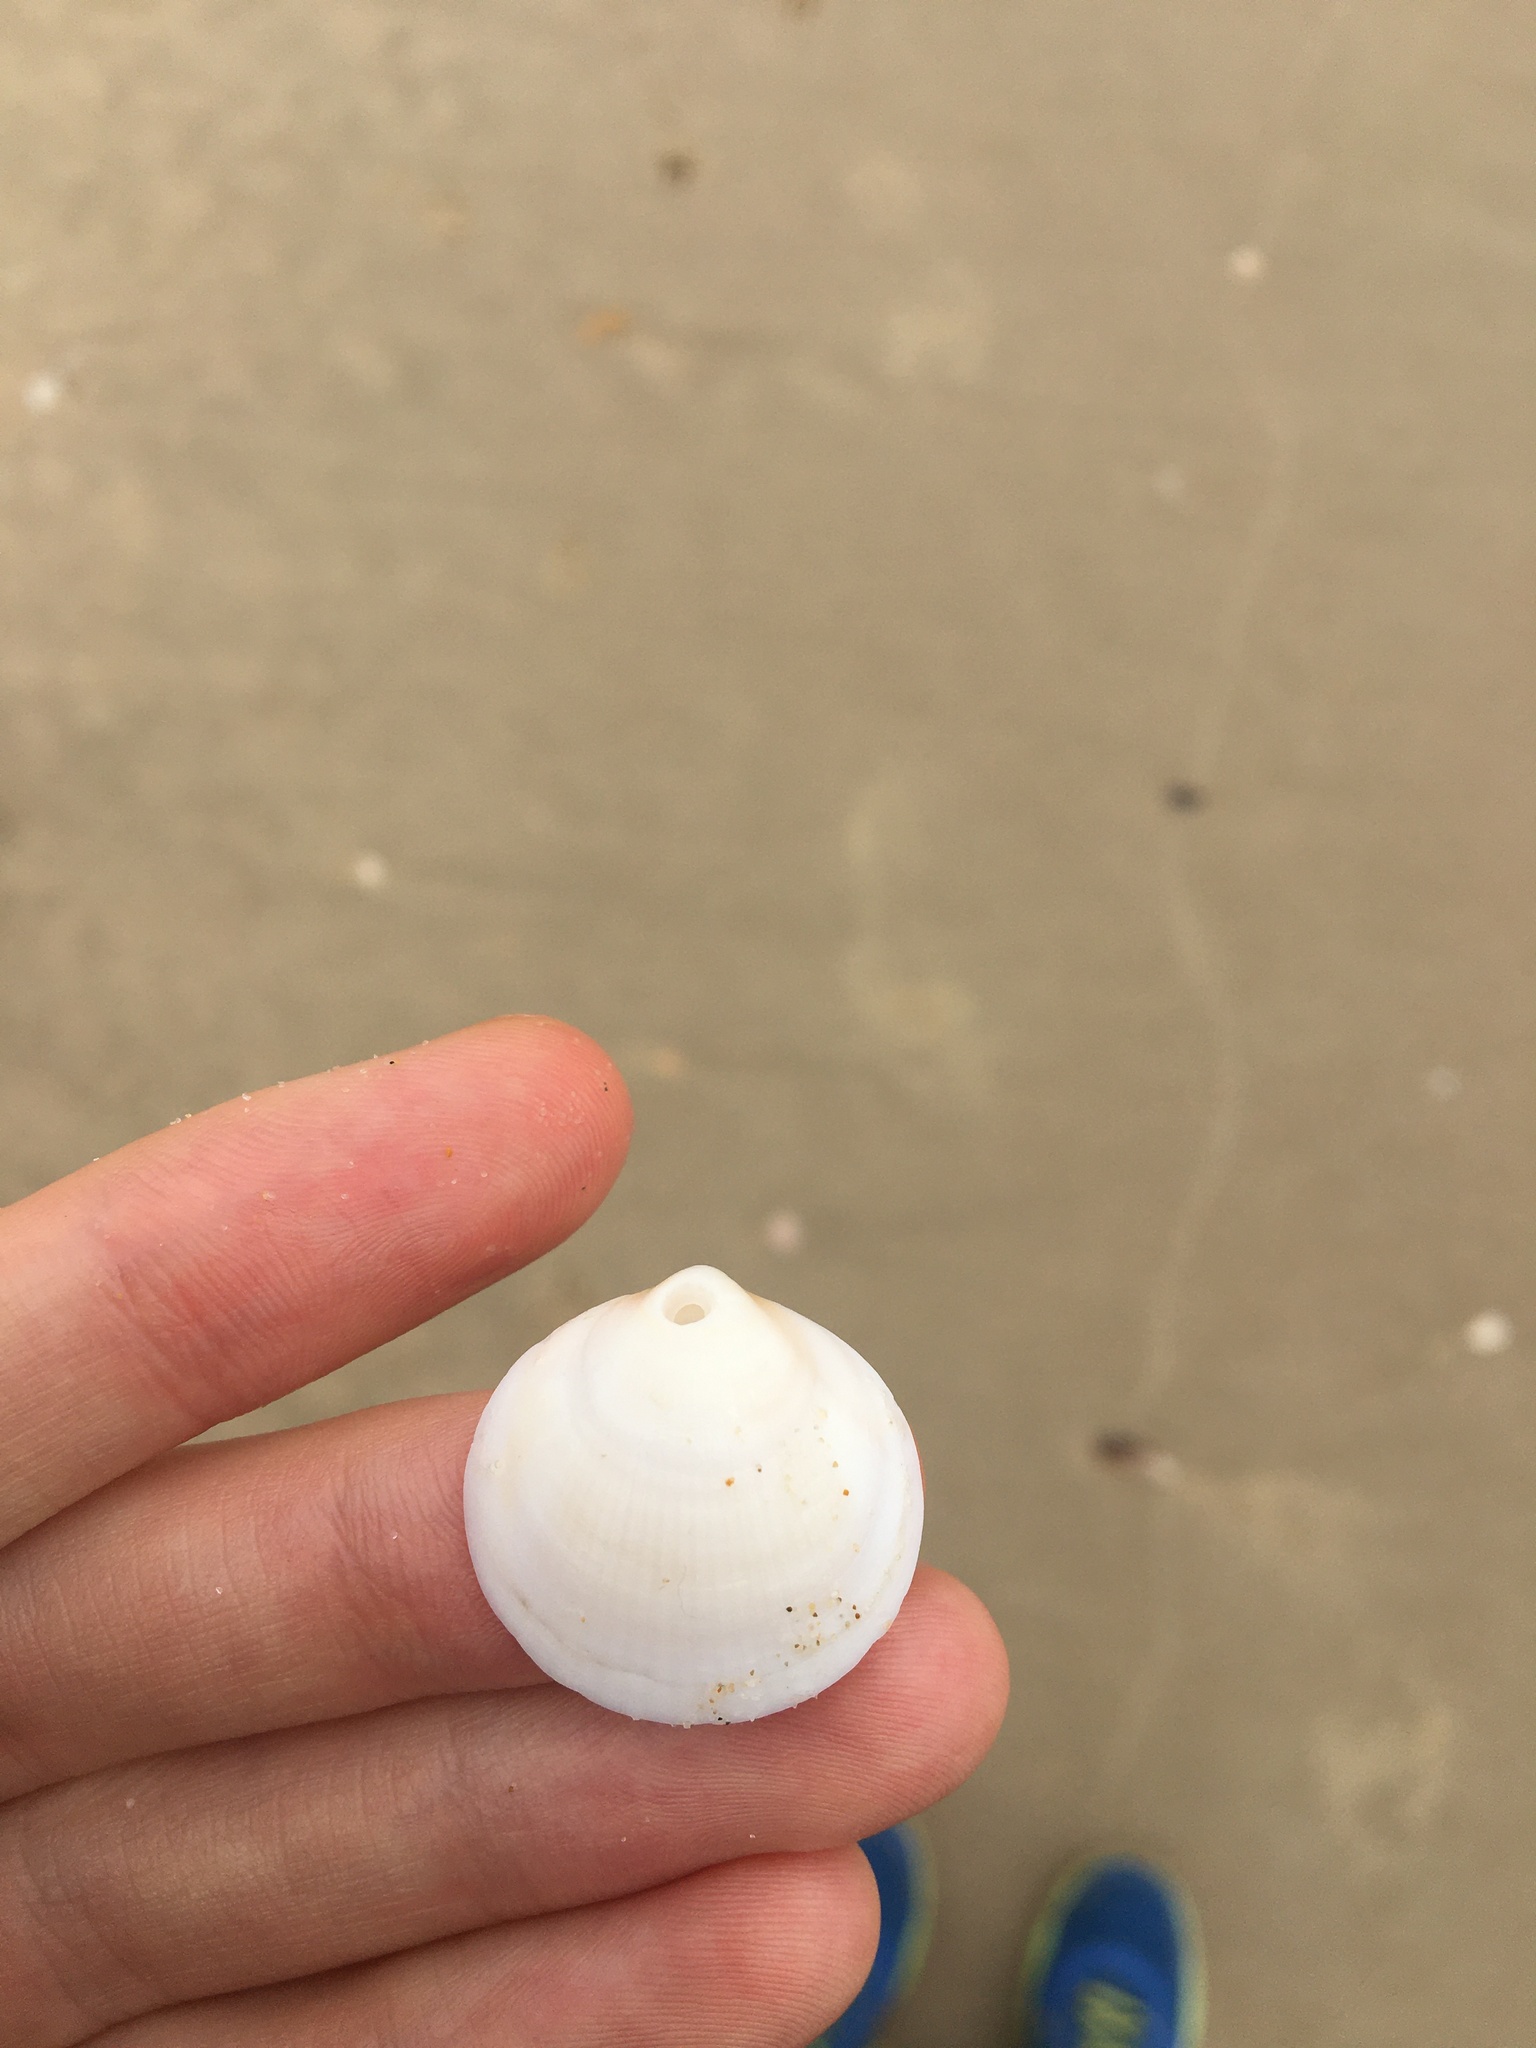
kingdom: Animalia
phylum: Mollusca
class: Bivalvia
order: Arcida
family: Glycymerididae
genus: Glycymeris
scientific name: Glycymeris holoserica
